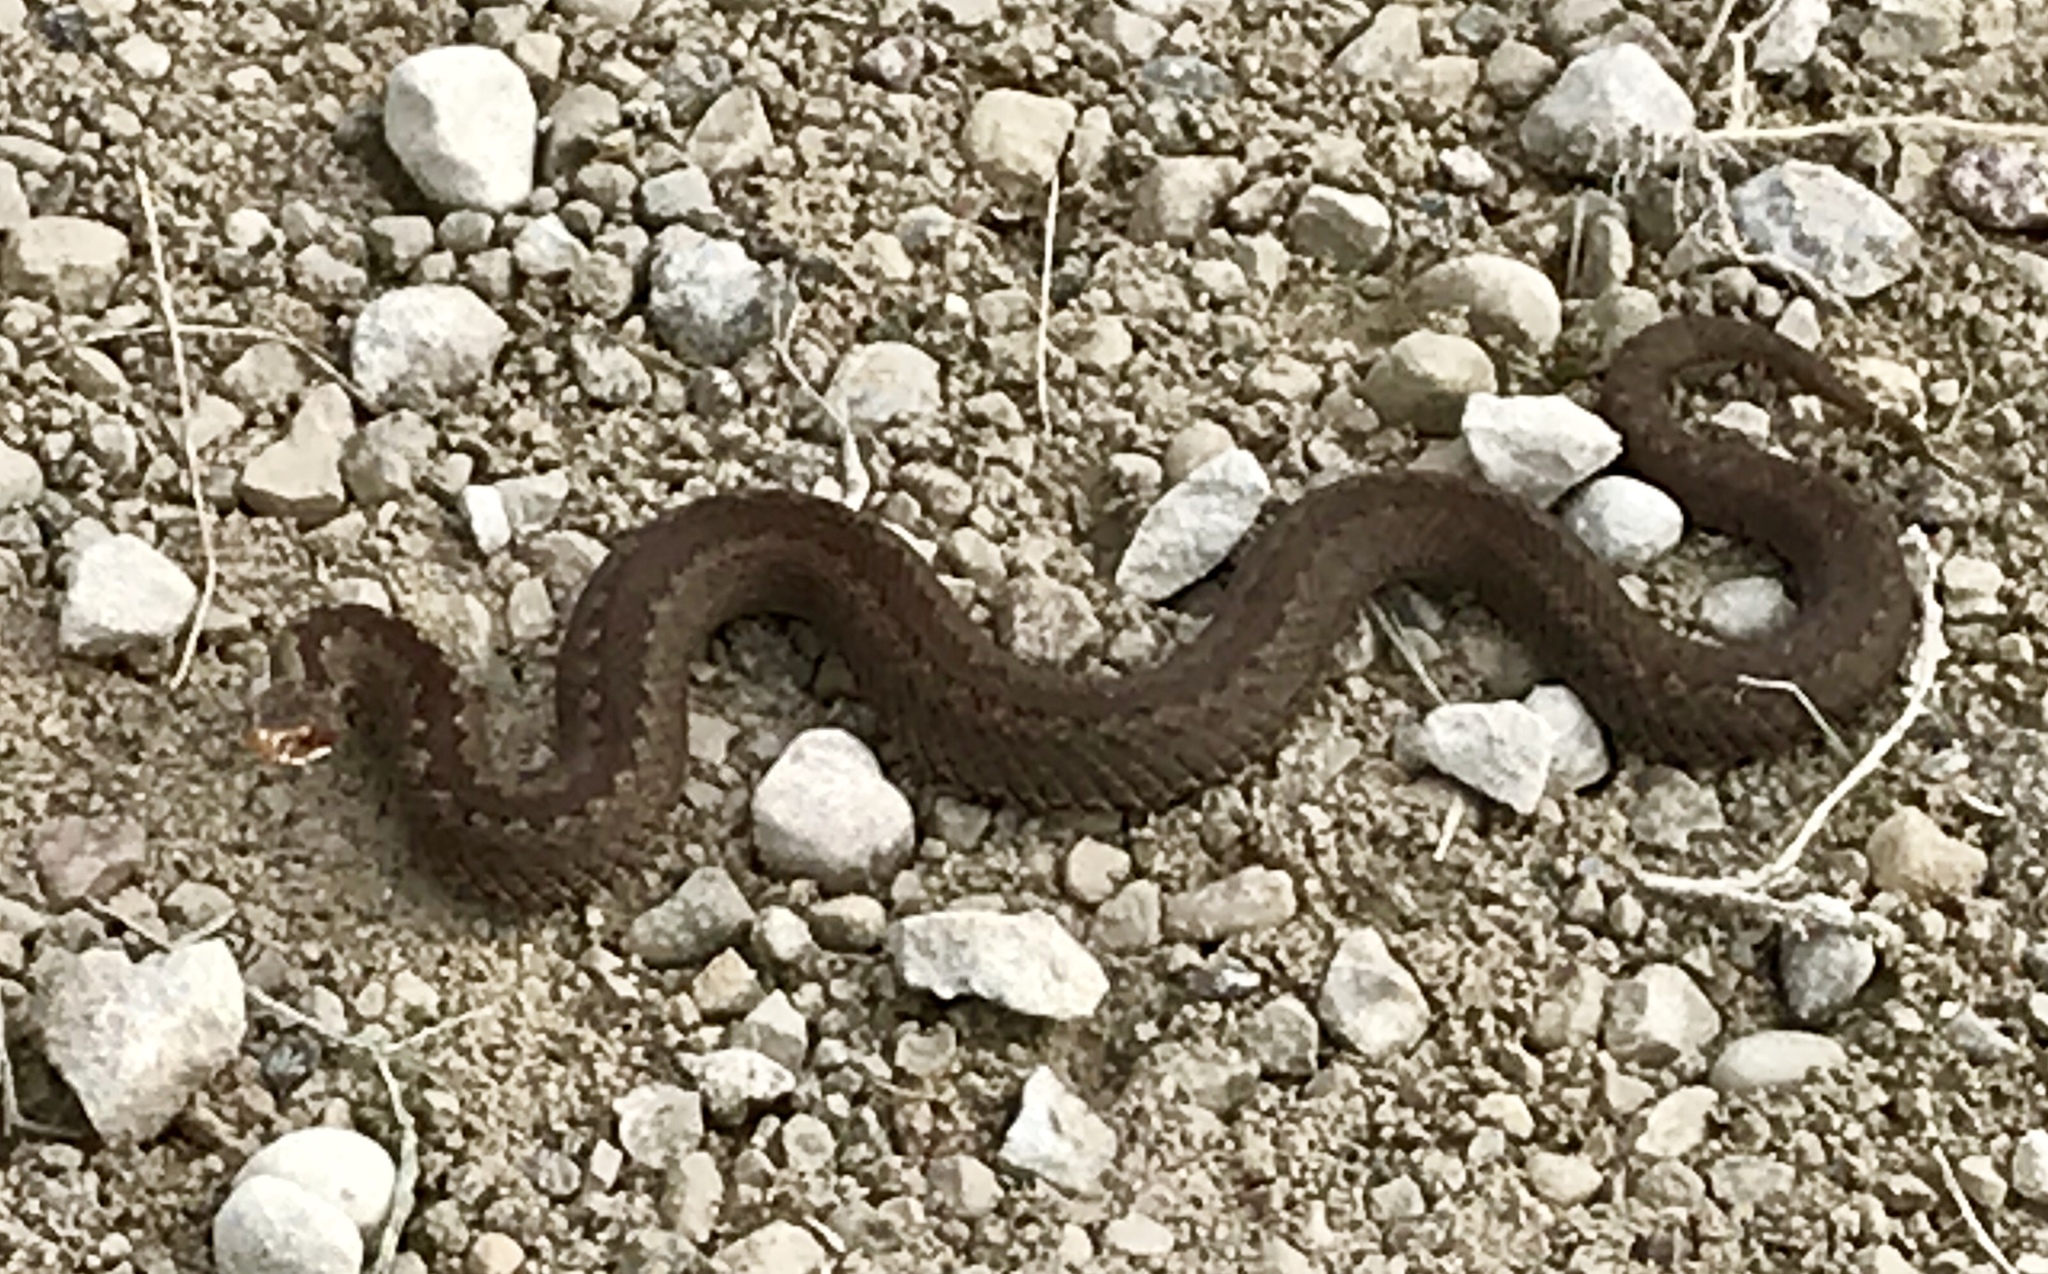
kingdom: Animalia
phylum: Chordata
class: Squamata
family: Viperidae
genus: Vipera
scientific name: Vipera berus
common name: Adder
